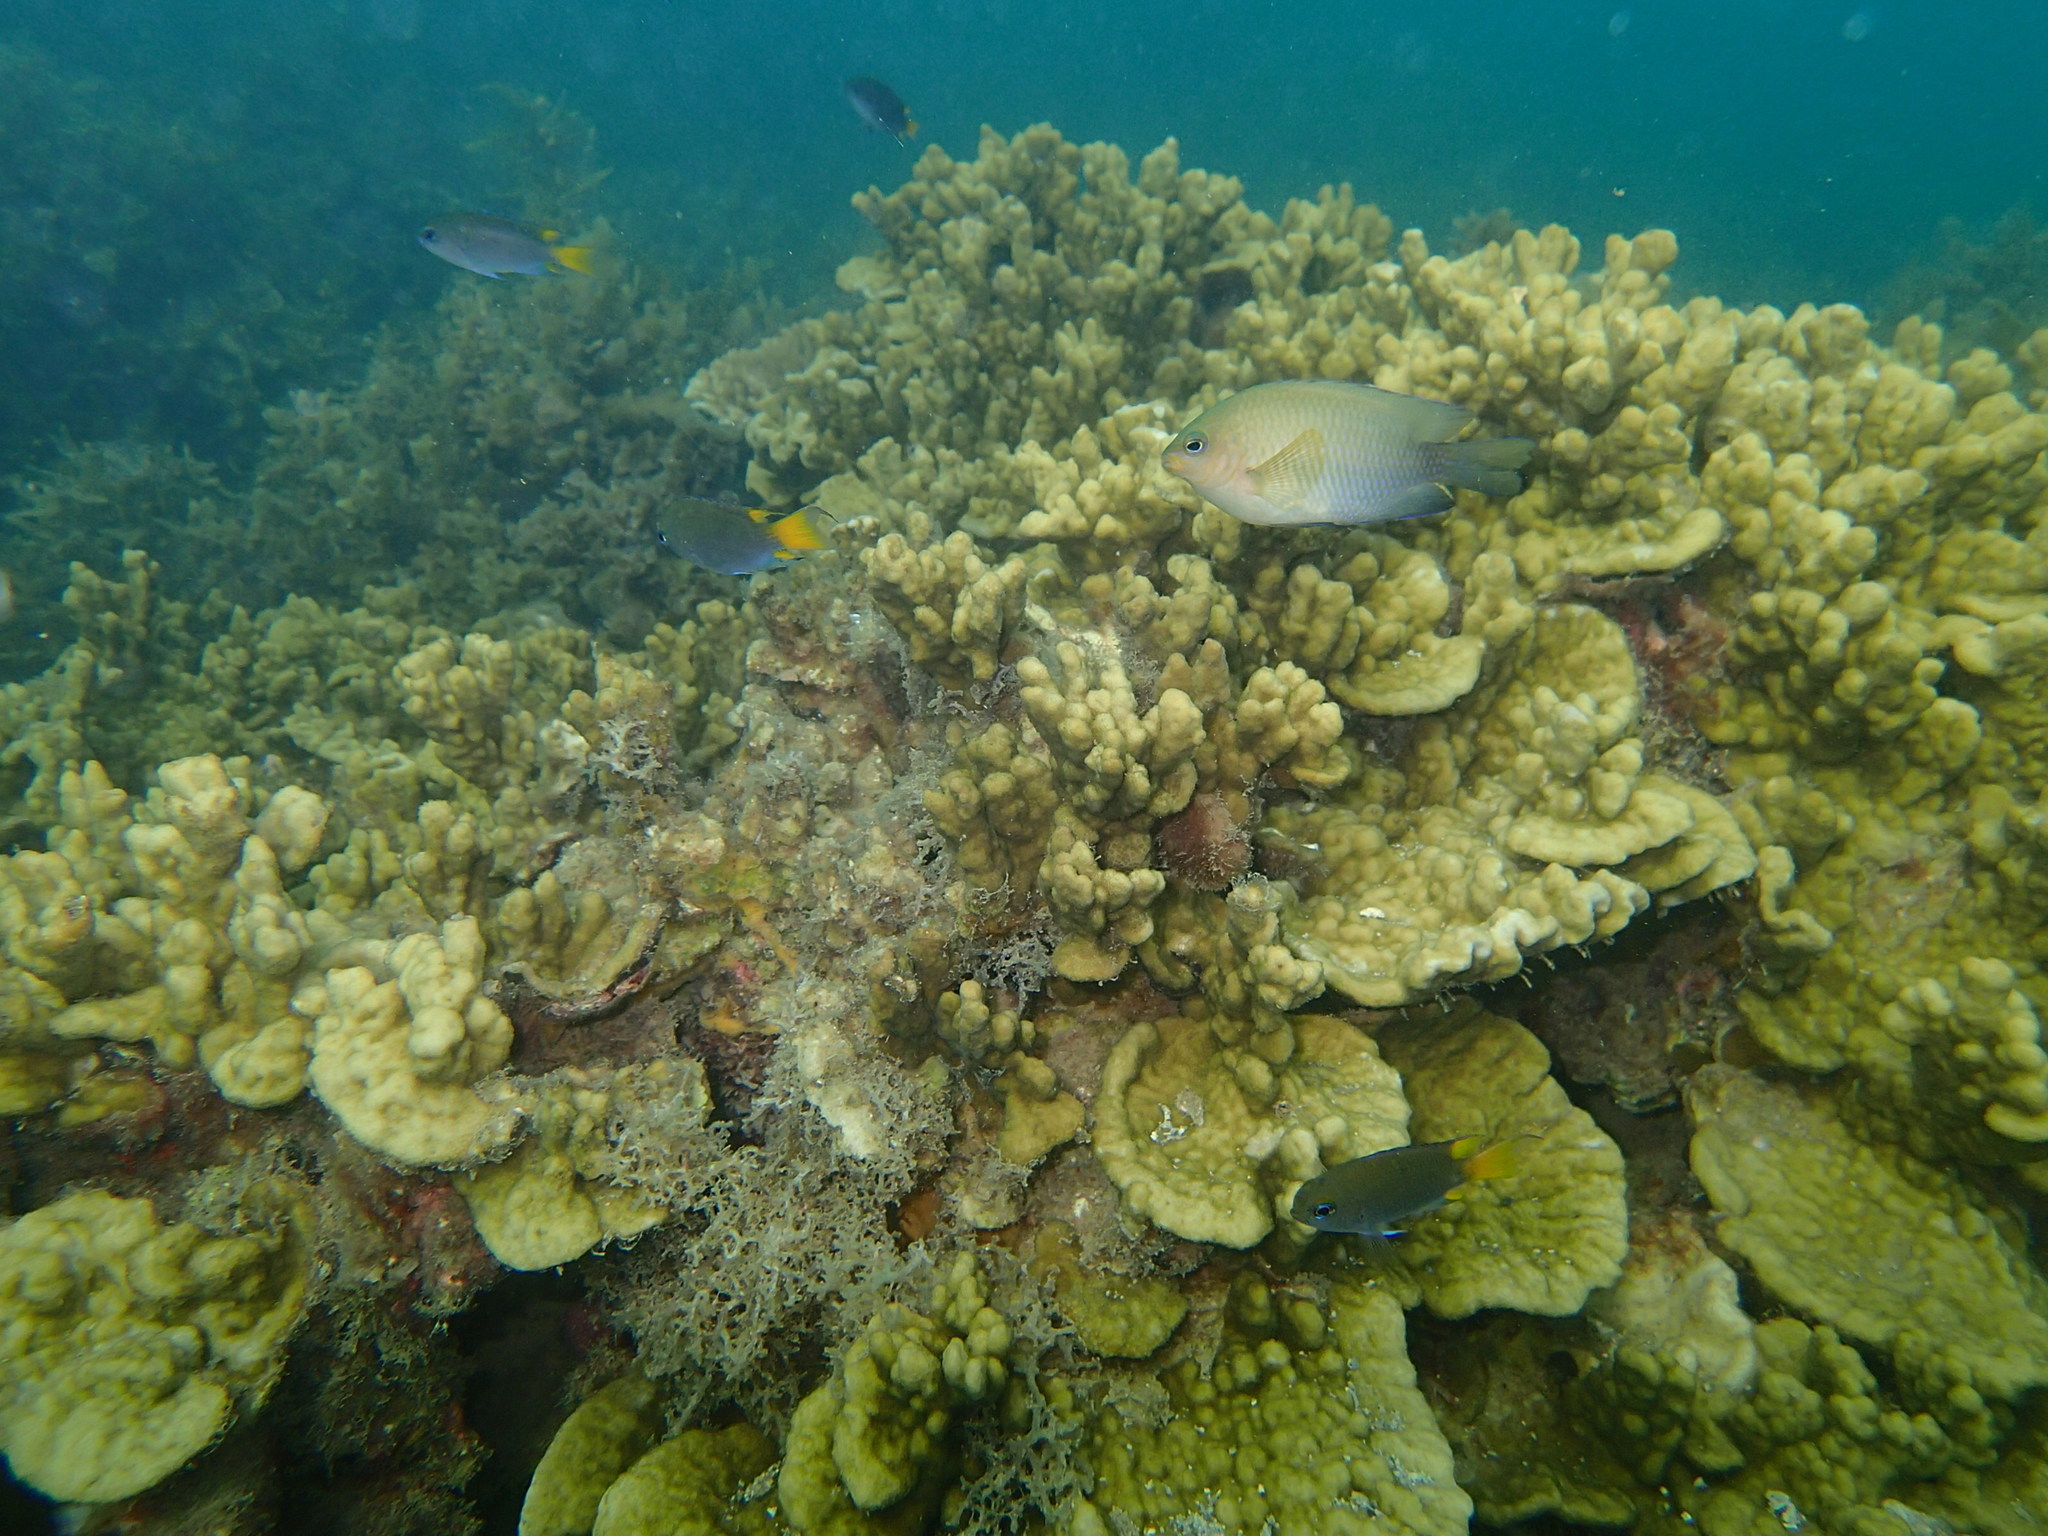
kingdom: Animalia
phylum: Chordata
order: Perciformes
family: Pomacentridae
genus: Stegastes
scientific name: Stegastes fasciolatus
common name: Pacific gregory
